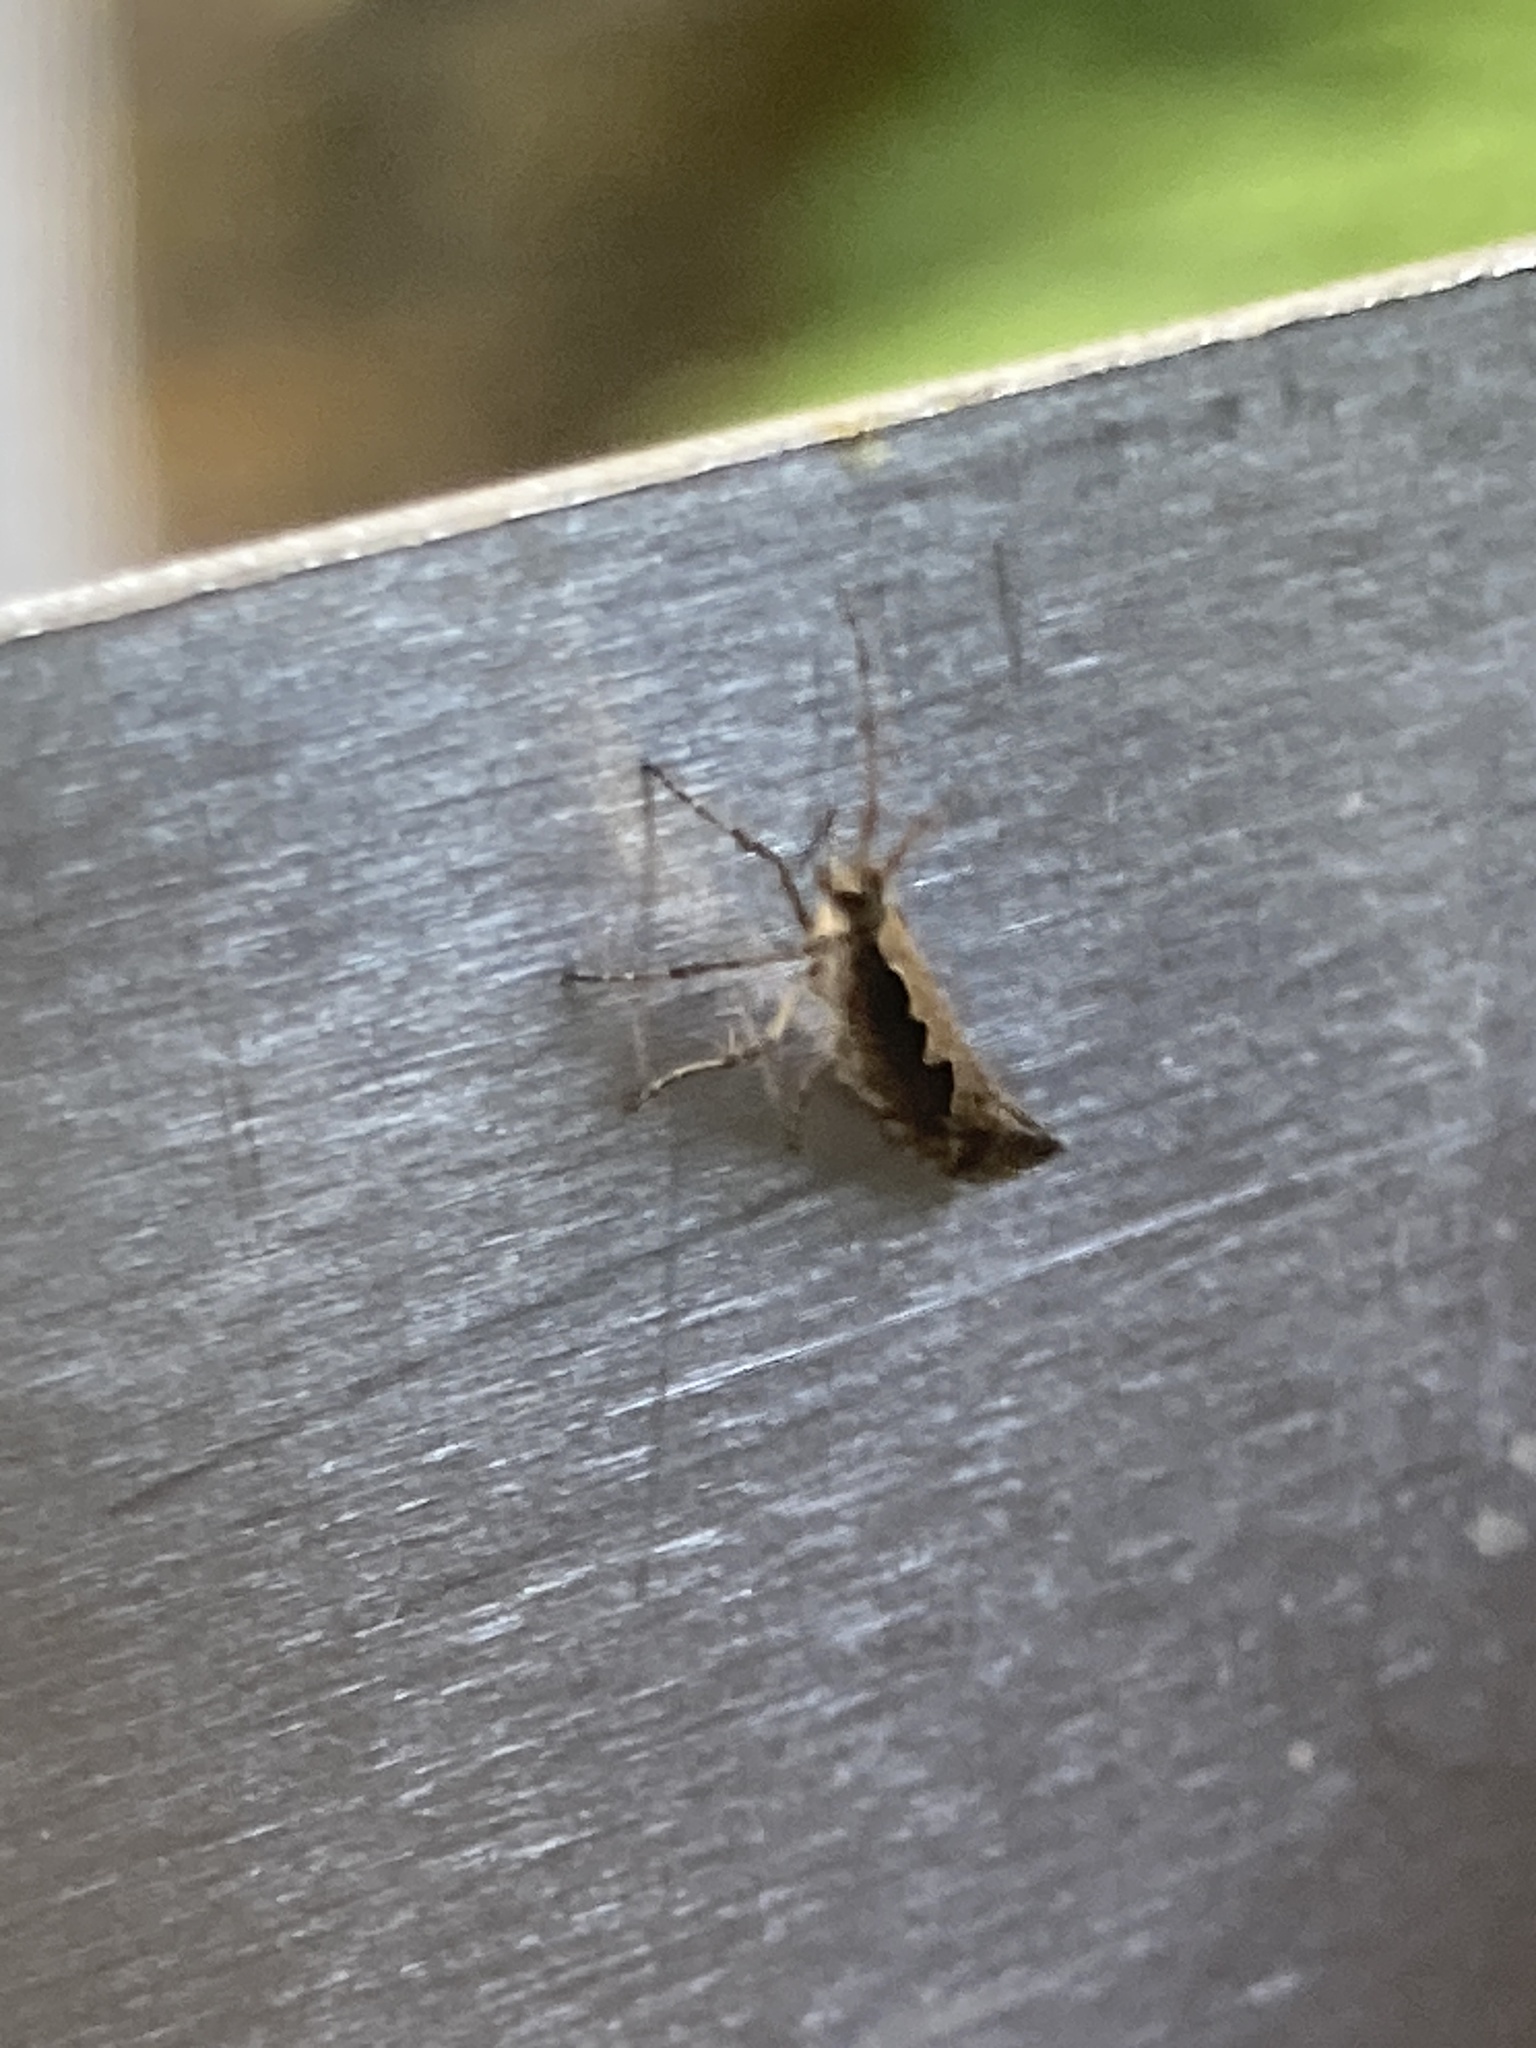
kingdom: Animalia
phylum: Arthropoda
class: Insecta
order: Lepidoptera
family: Plutellidae
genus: Plutella
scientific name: Plutella xylostella
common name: Diamond-back moth
